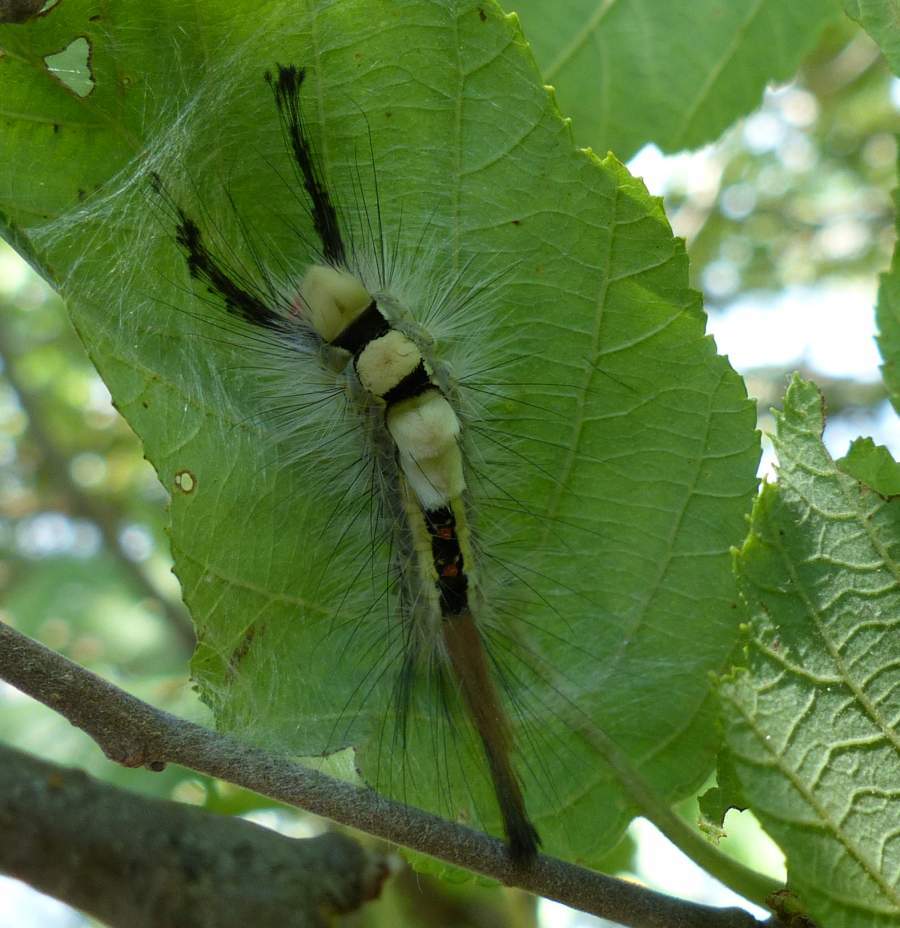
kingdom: Animalia
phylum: Arthropoda
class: Insecta
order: Lepidoptera
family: Erebidae
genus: Orgyia
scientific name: Orgyia leucostigma
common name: White-marked tussock moth
